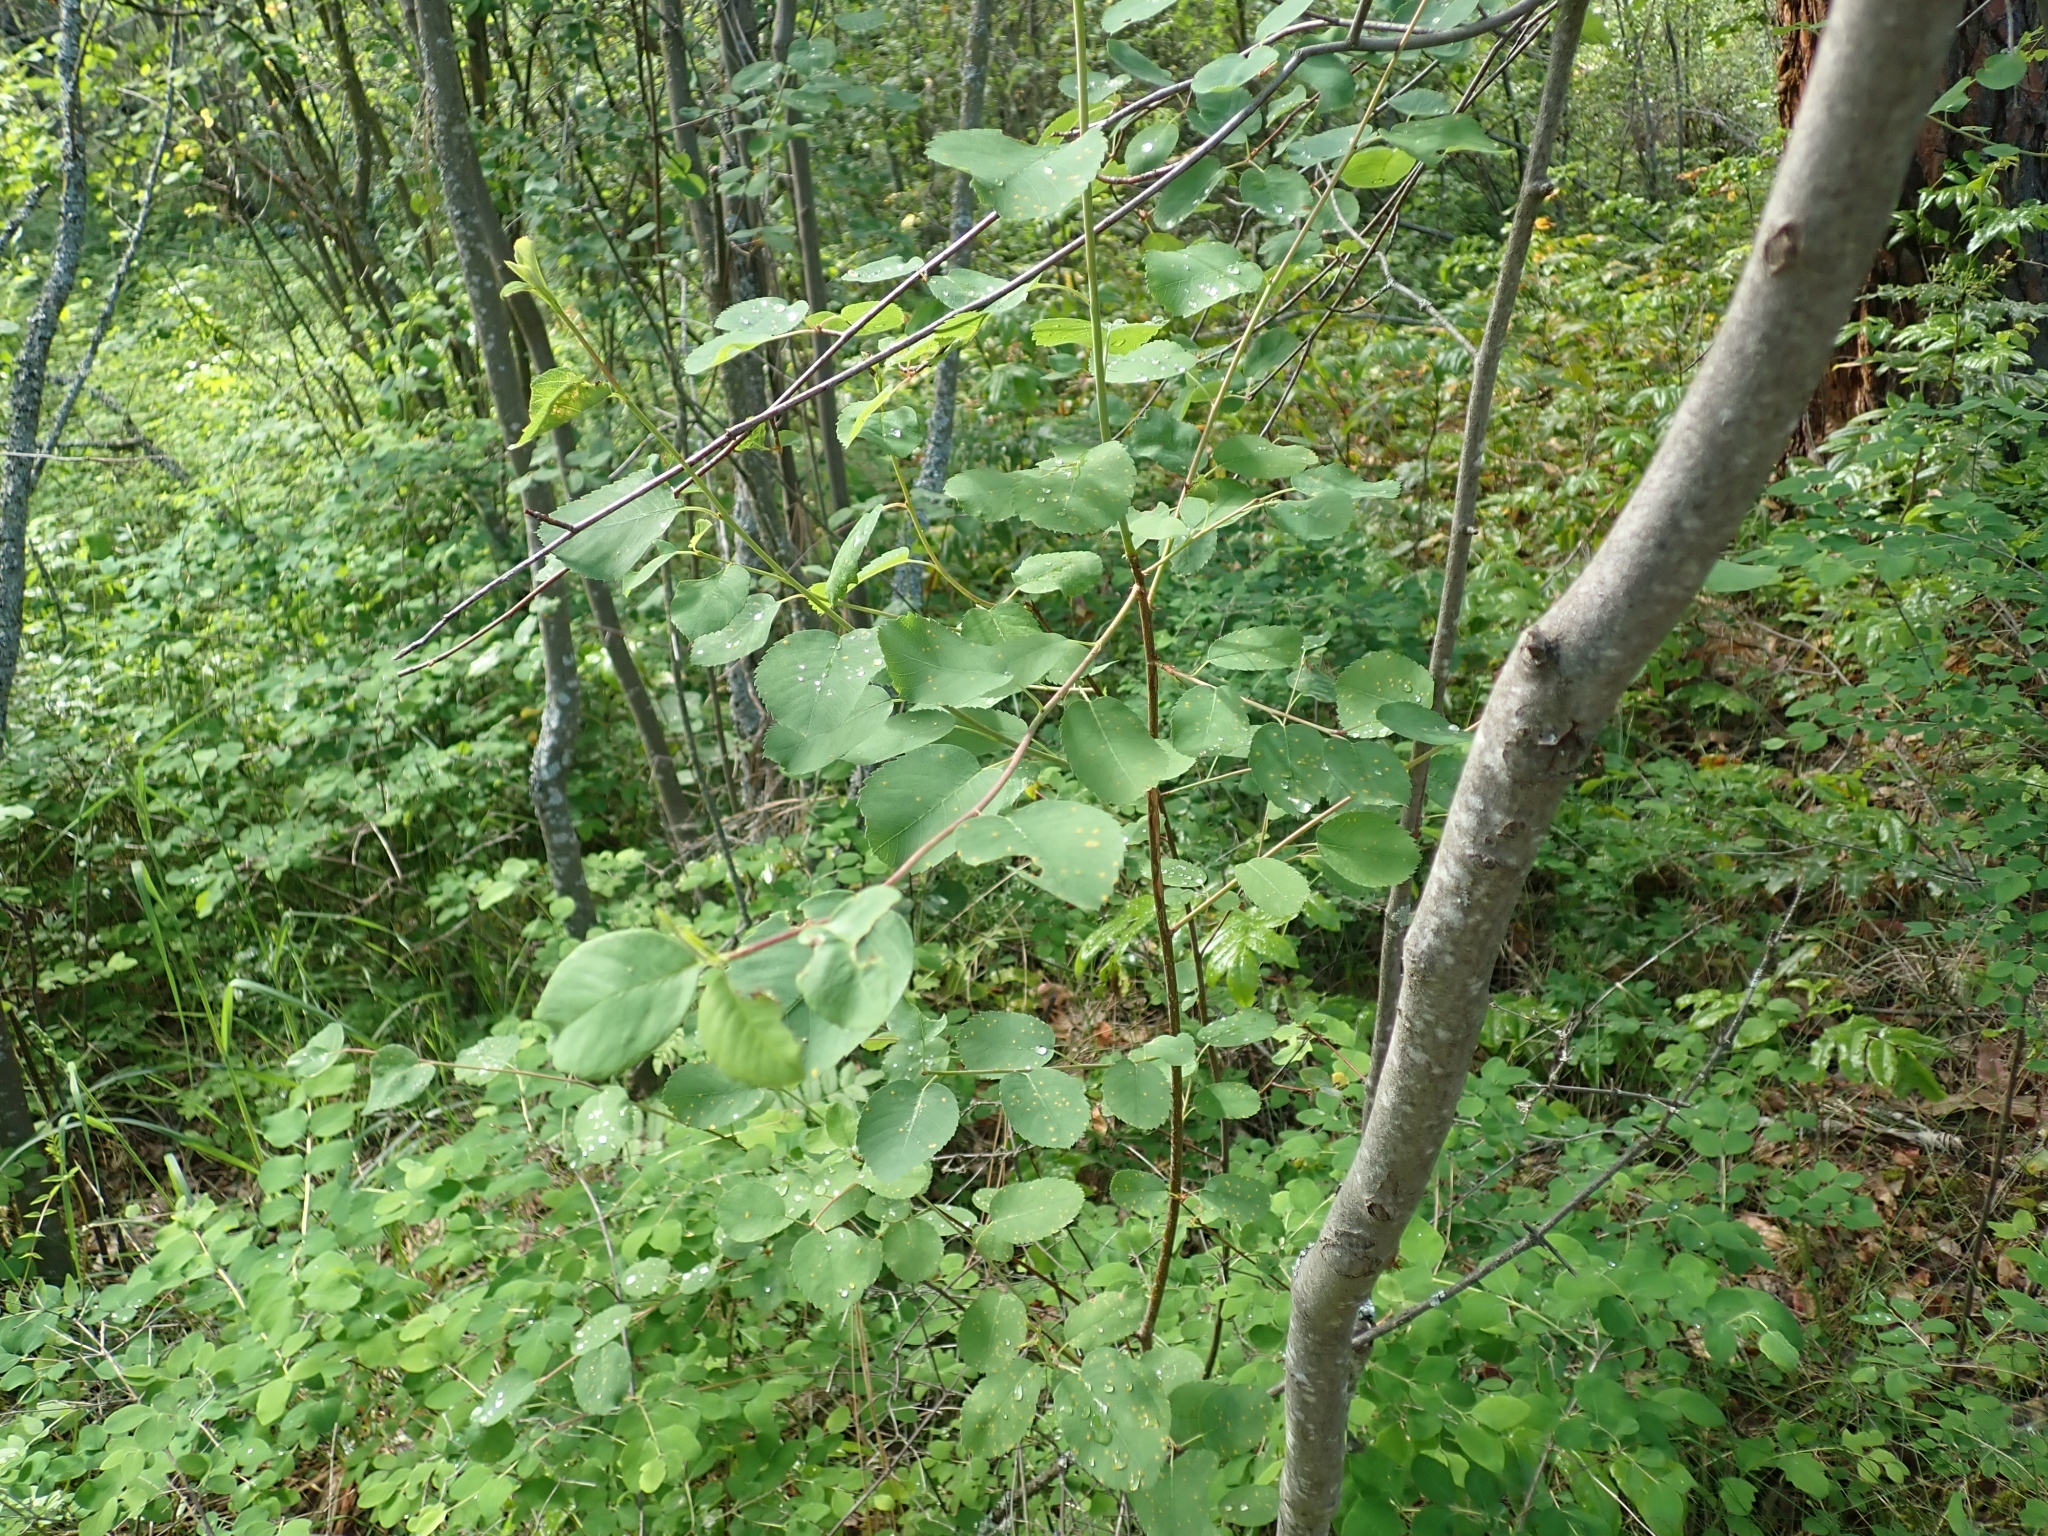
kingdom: Plantae
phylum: Tracheophyta
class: Magnoliopsida
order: Rosales
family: Rosaceae
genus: Amelanchier
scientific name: Amelanchier alnifolia
